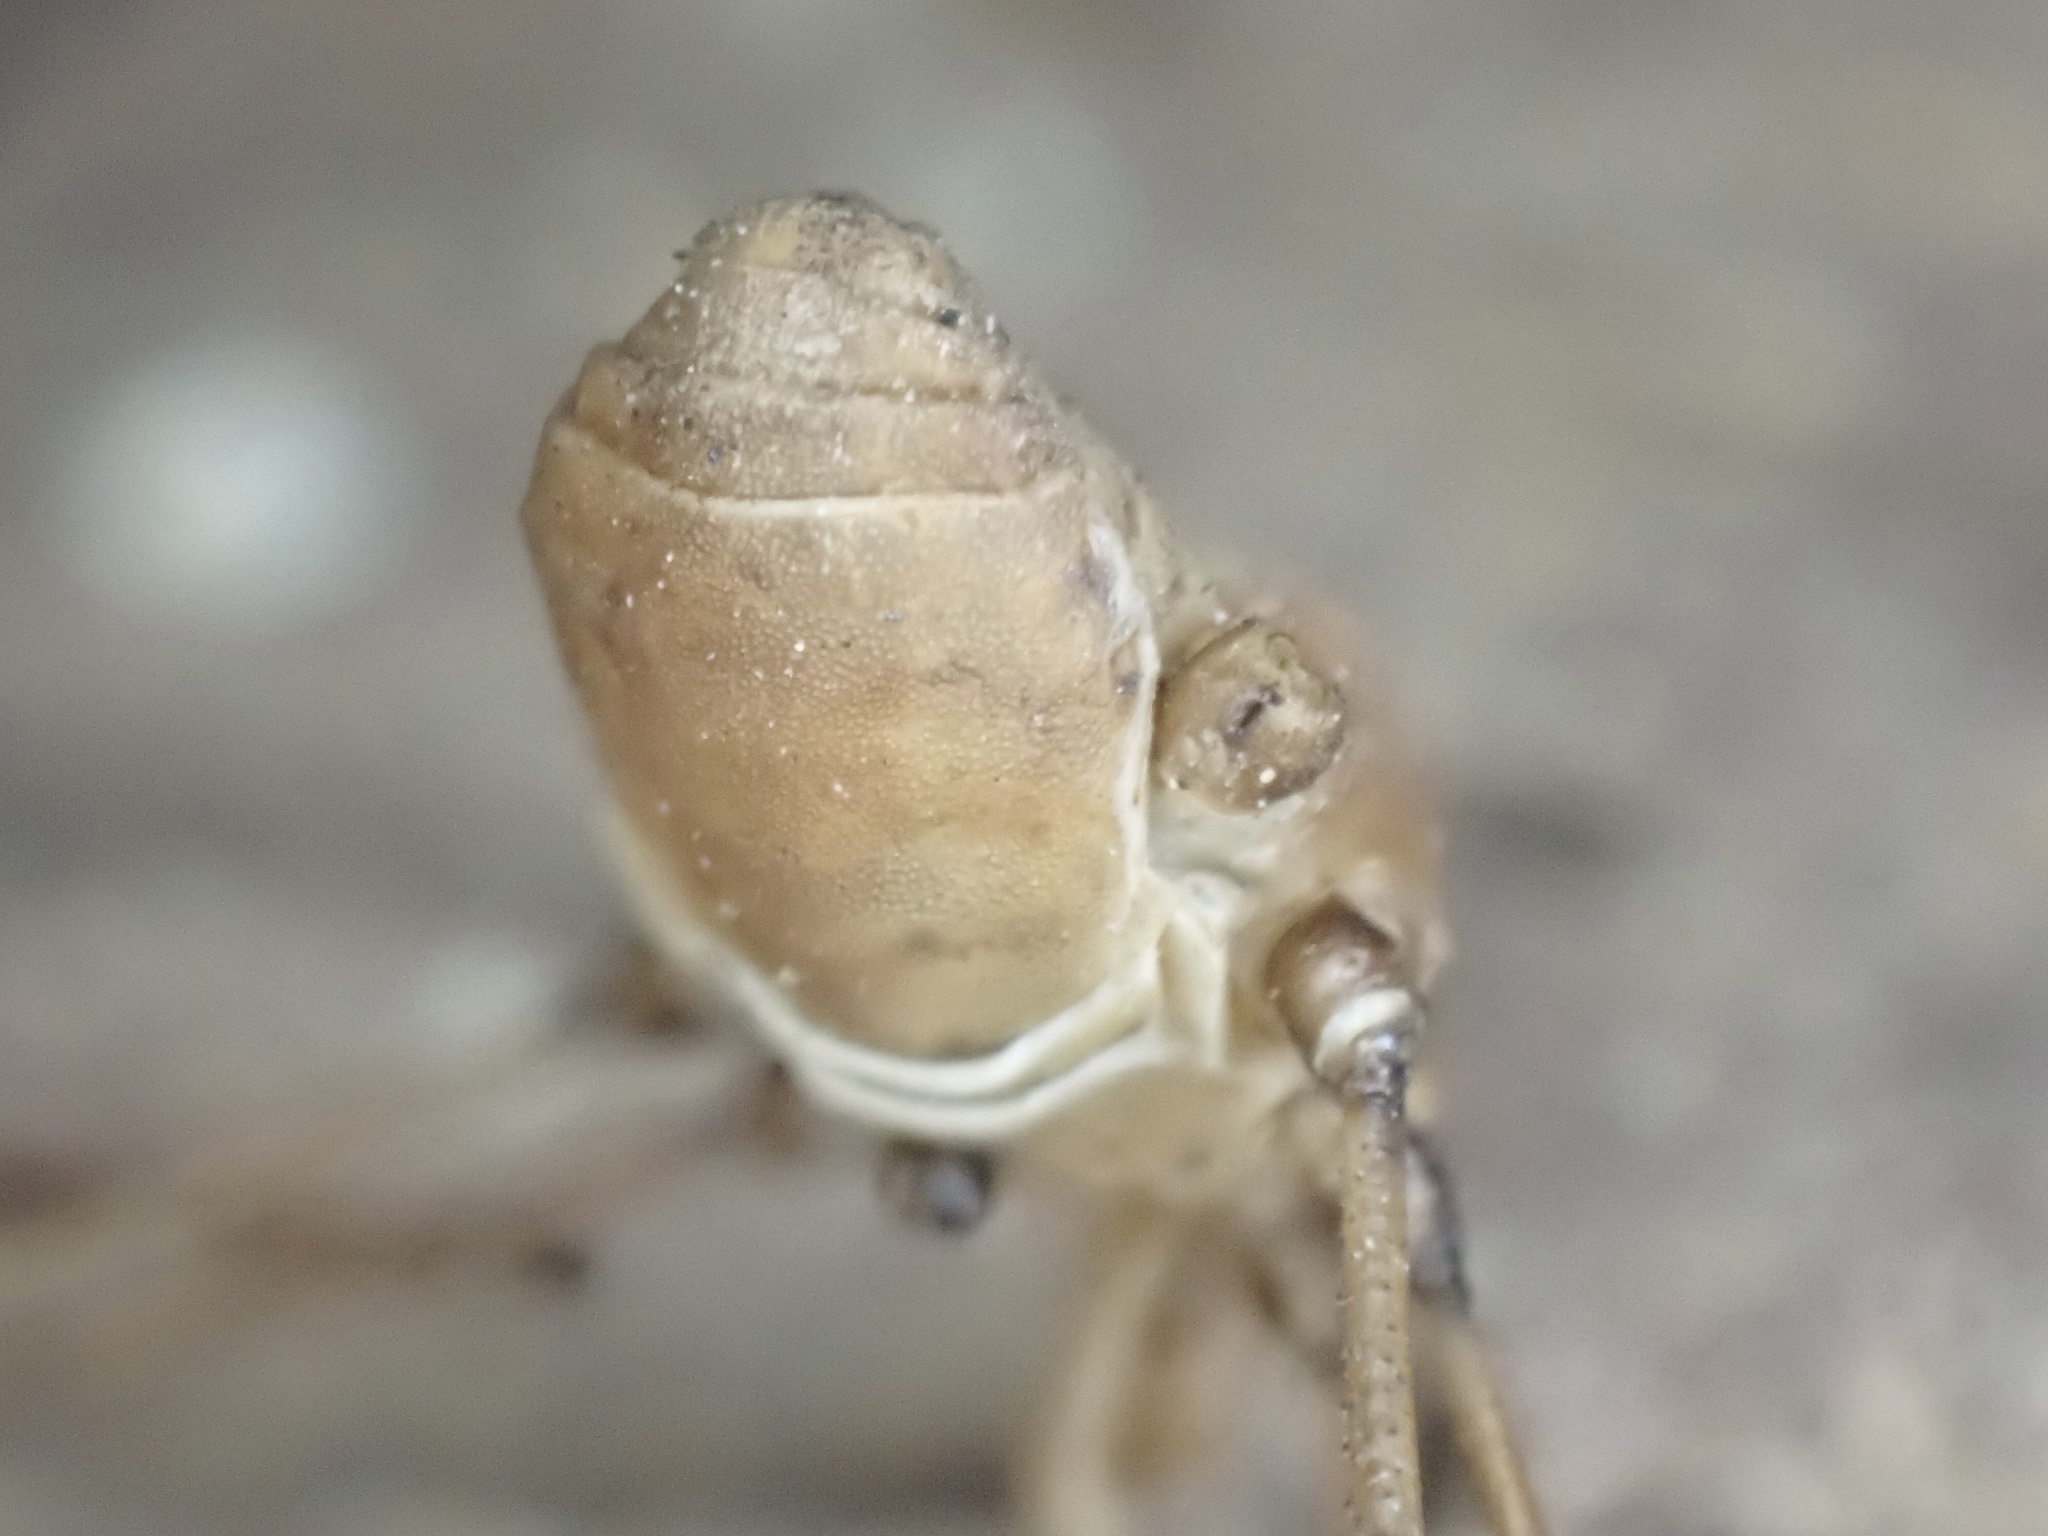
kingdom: Animalia
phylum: Arthropoda
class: Arachnida
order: Opiliones
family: Sclerosomatidae
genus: Leiobunum
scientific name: Leiobunum vittatum
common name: Eastern harvestman
